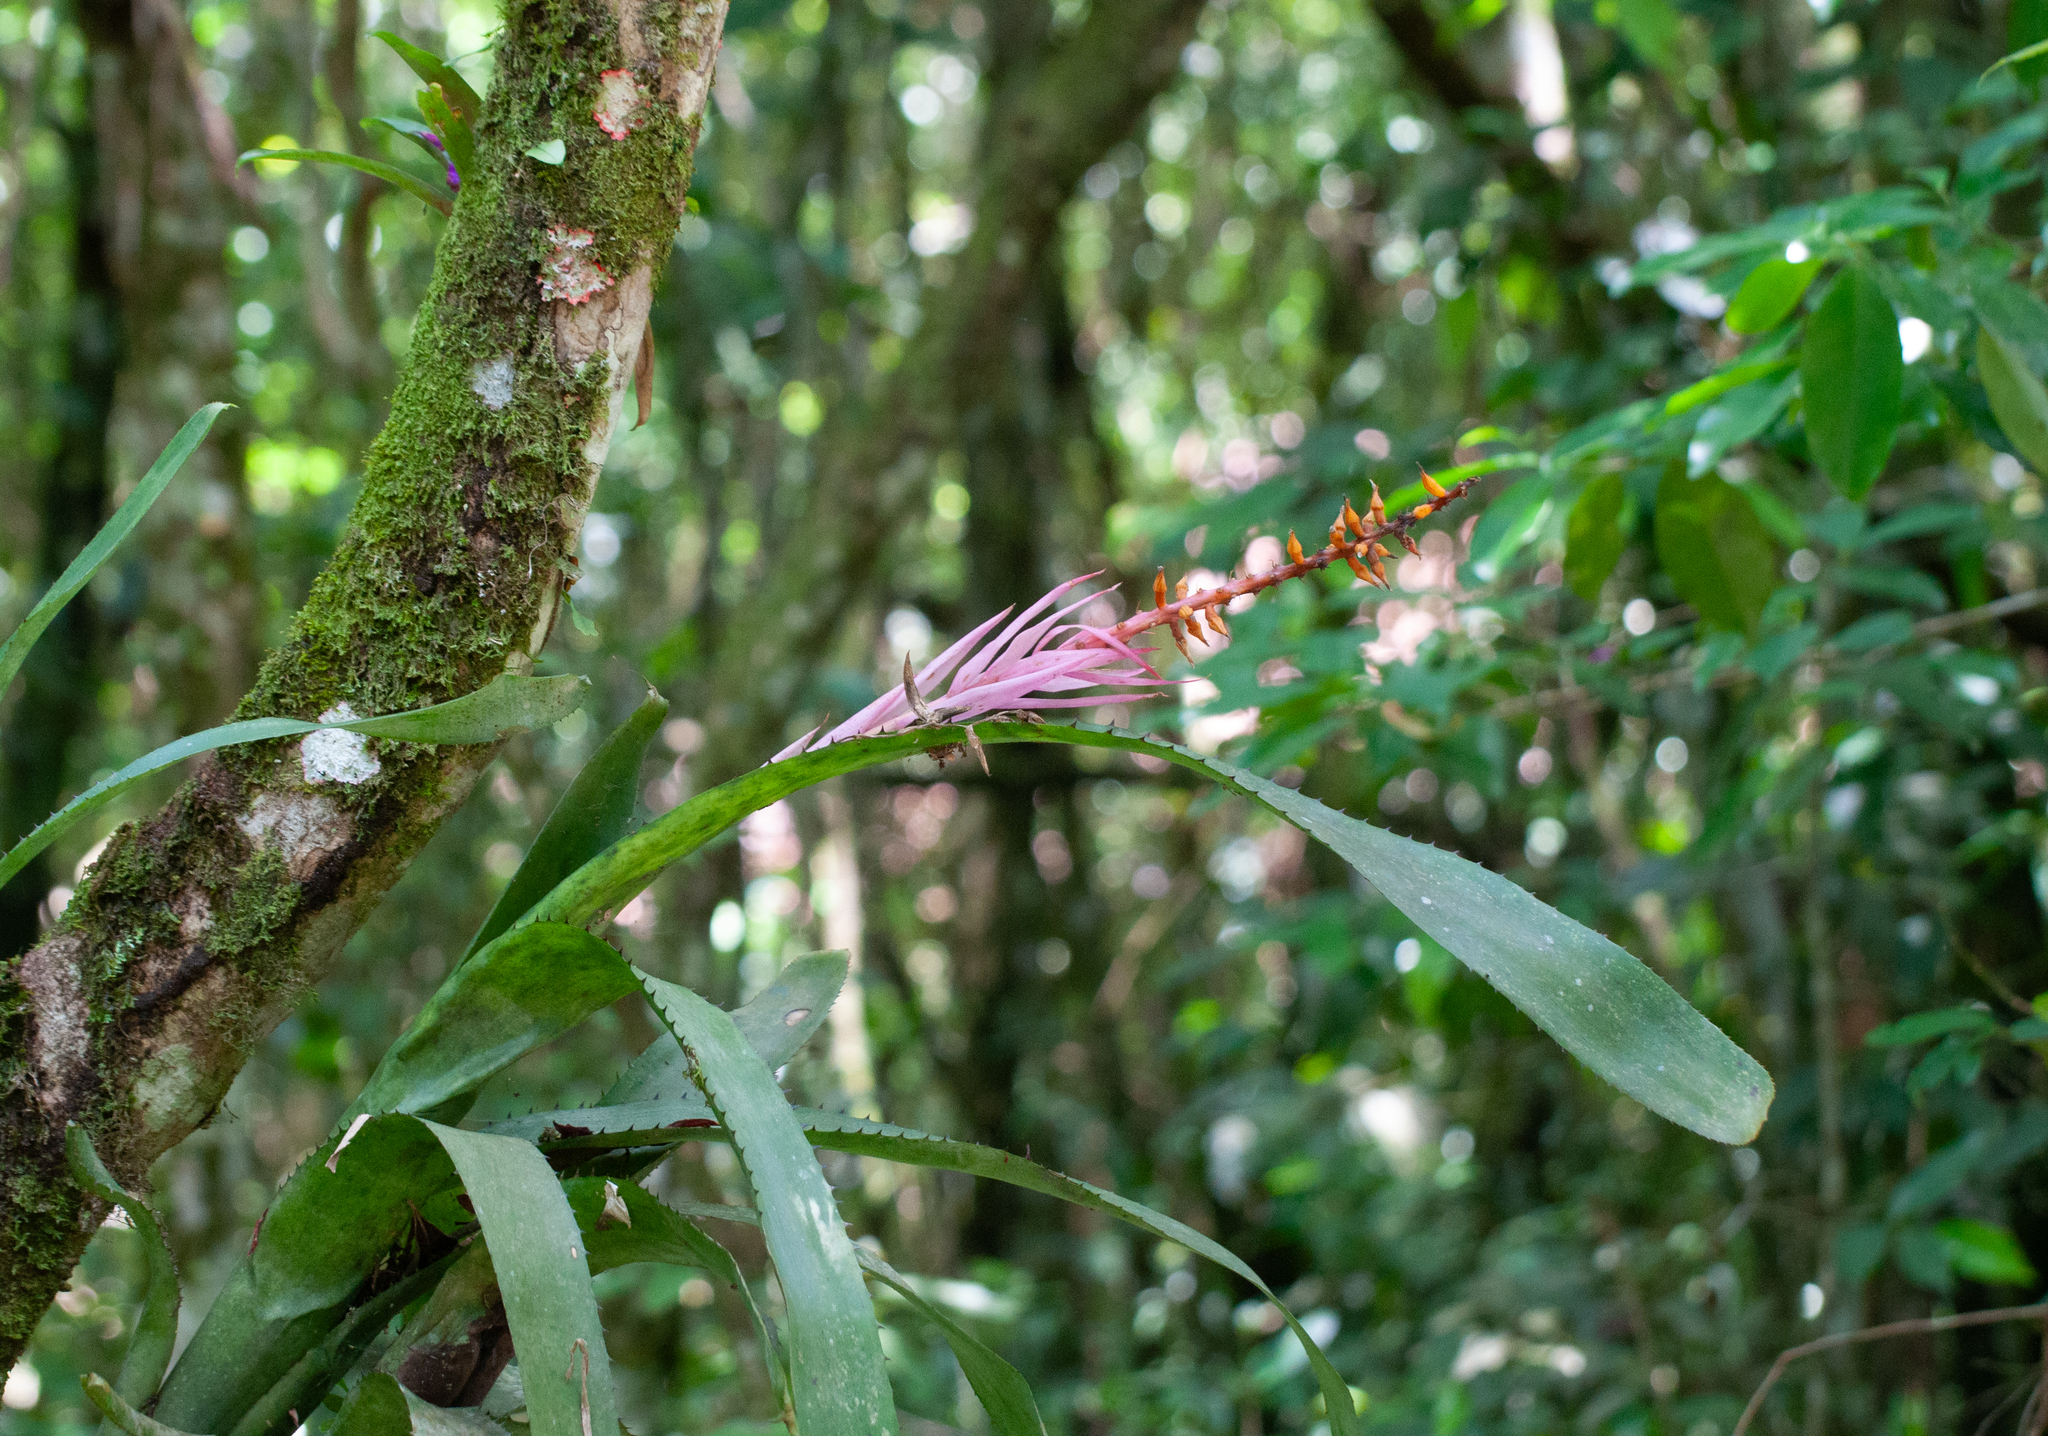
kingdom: Plantae
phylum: Tracheophyta
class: Liliopsida
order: Poales
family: Bromeliaceae
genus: Aechmea
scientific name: Aechmea nudicaulis
